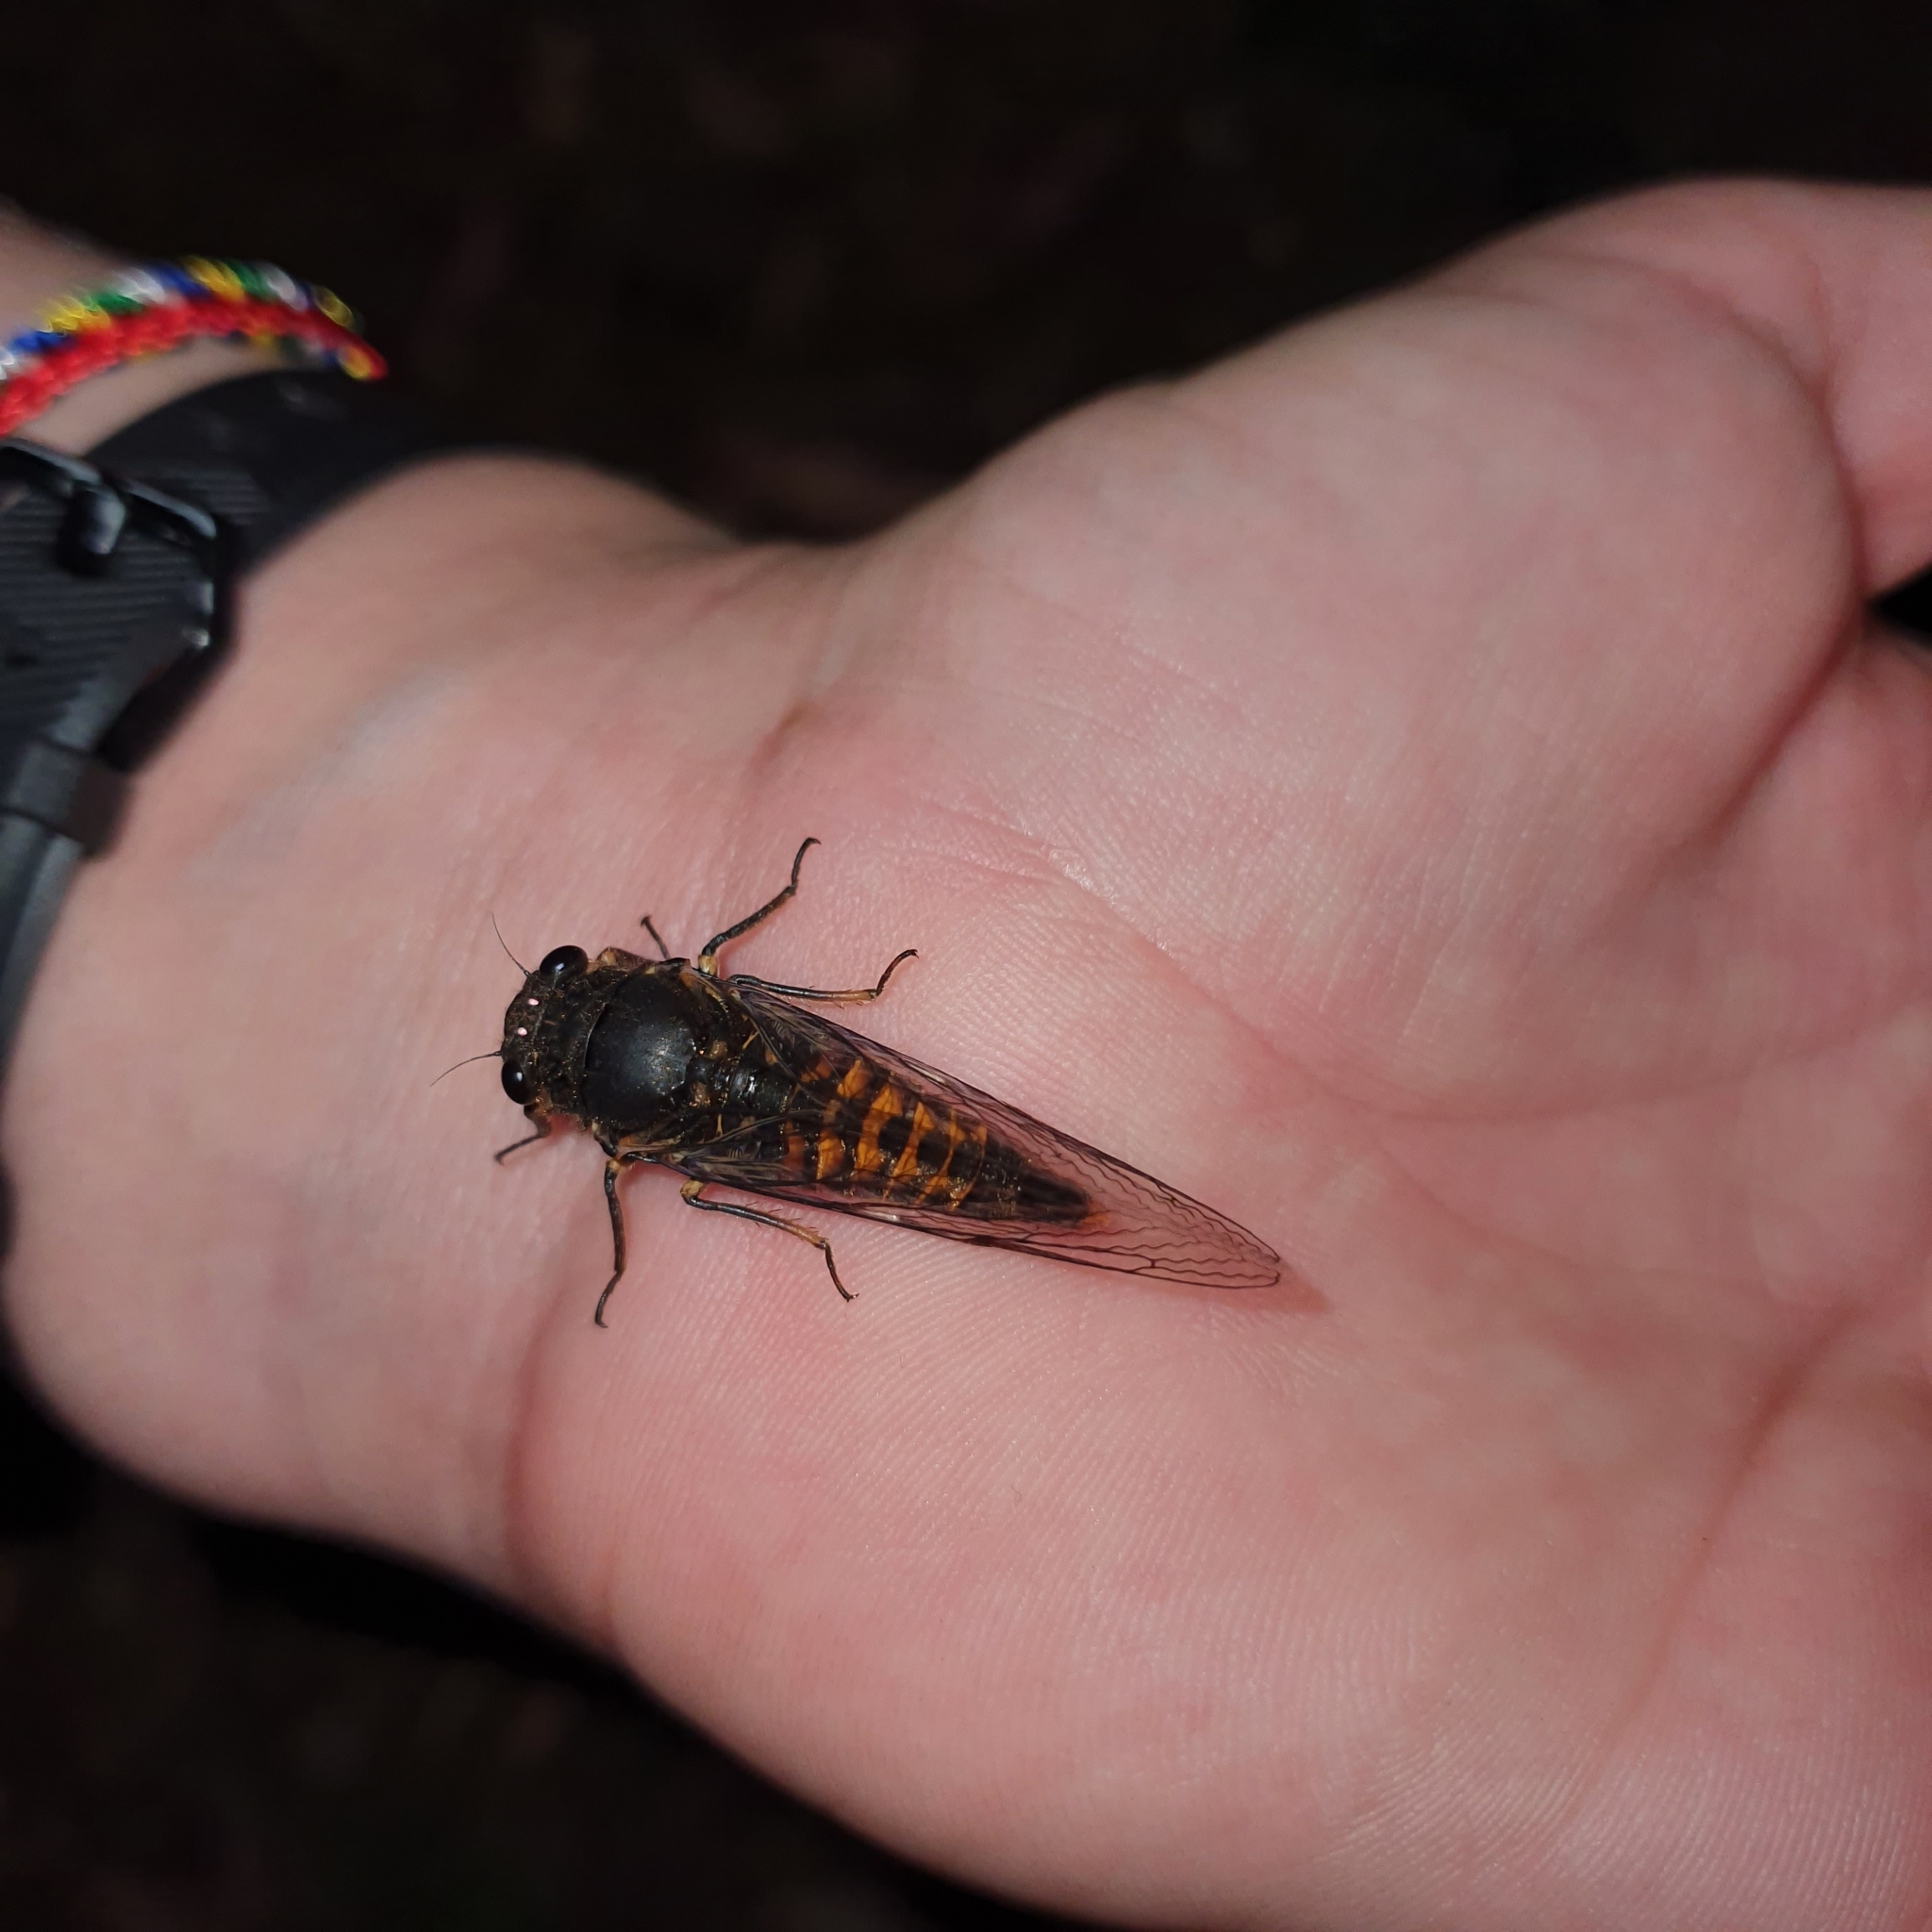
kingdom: Animalia
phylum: Arthropoda
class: Insecta
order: Hemiptera
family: Cicadidae
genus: Yoyetta
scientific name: Yoyetta robertsonae
